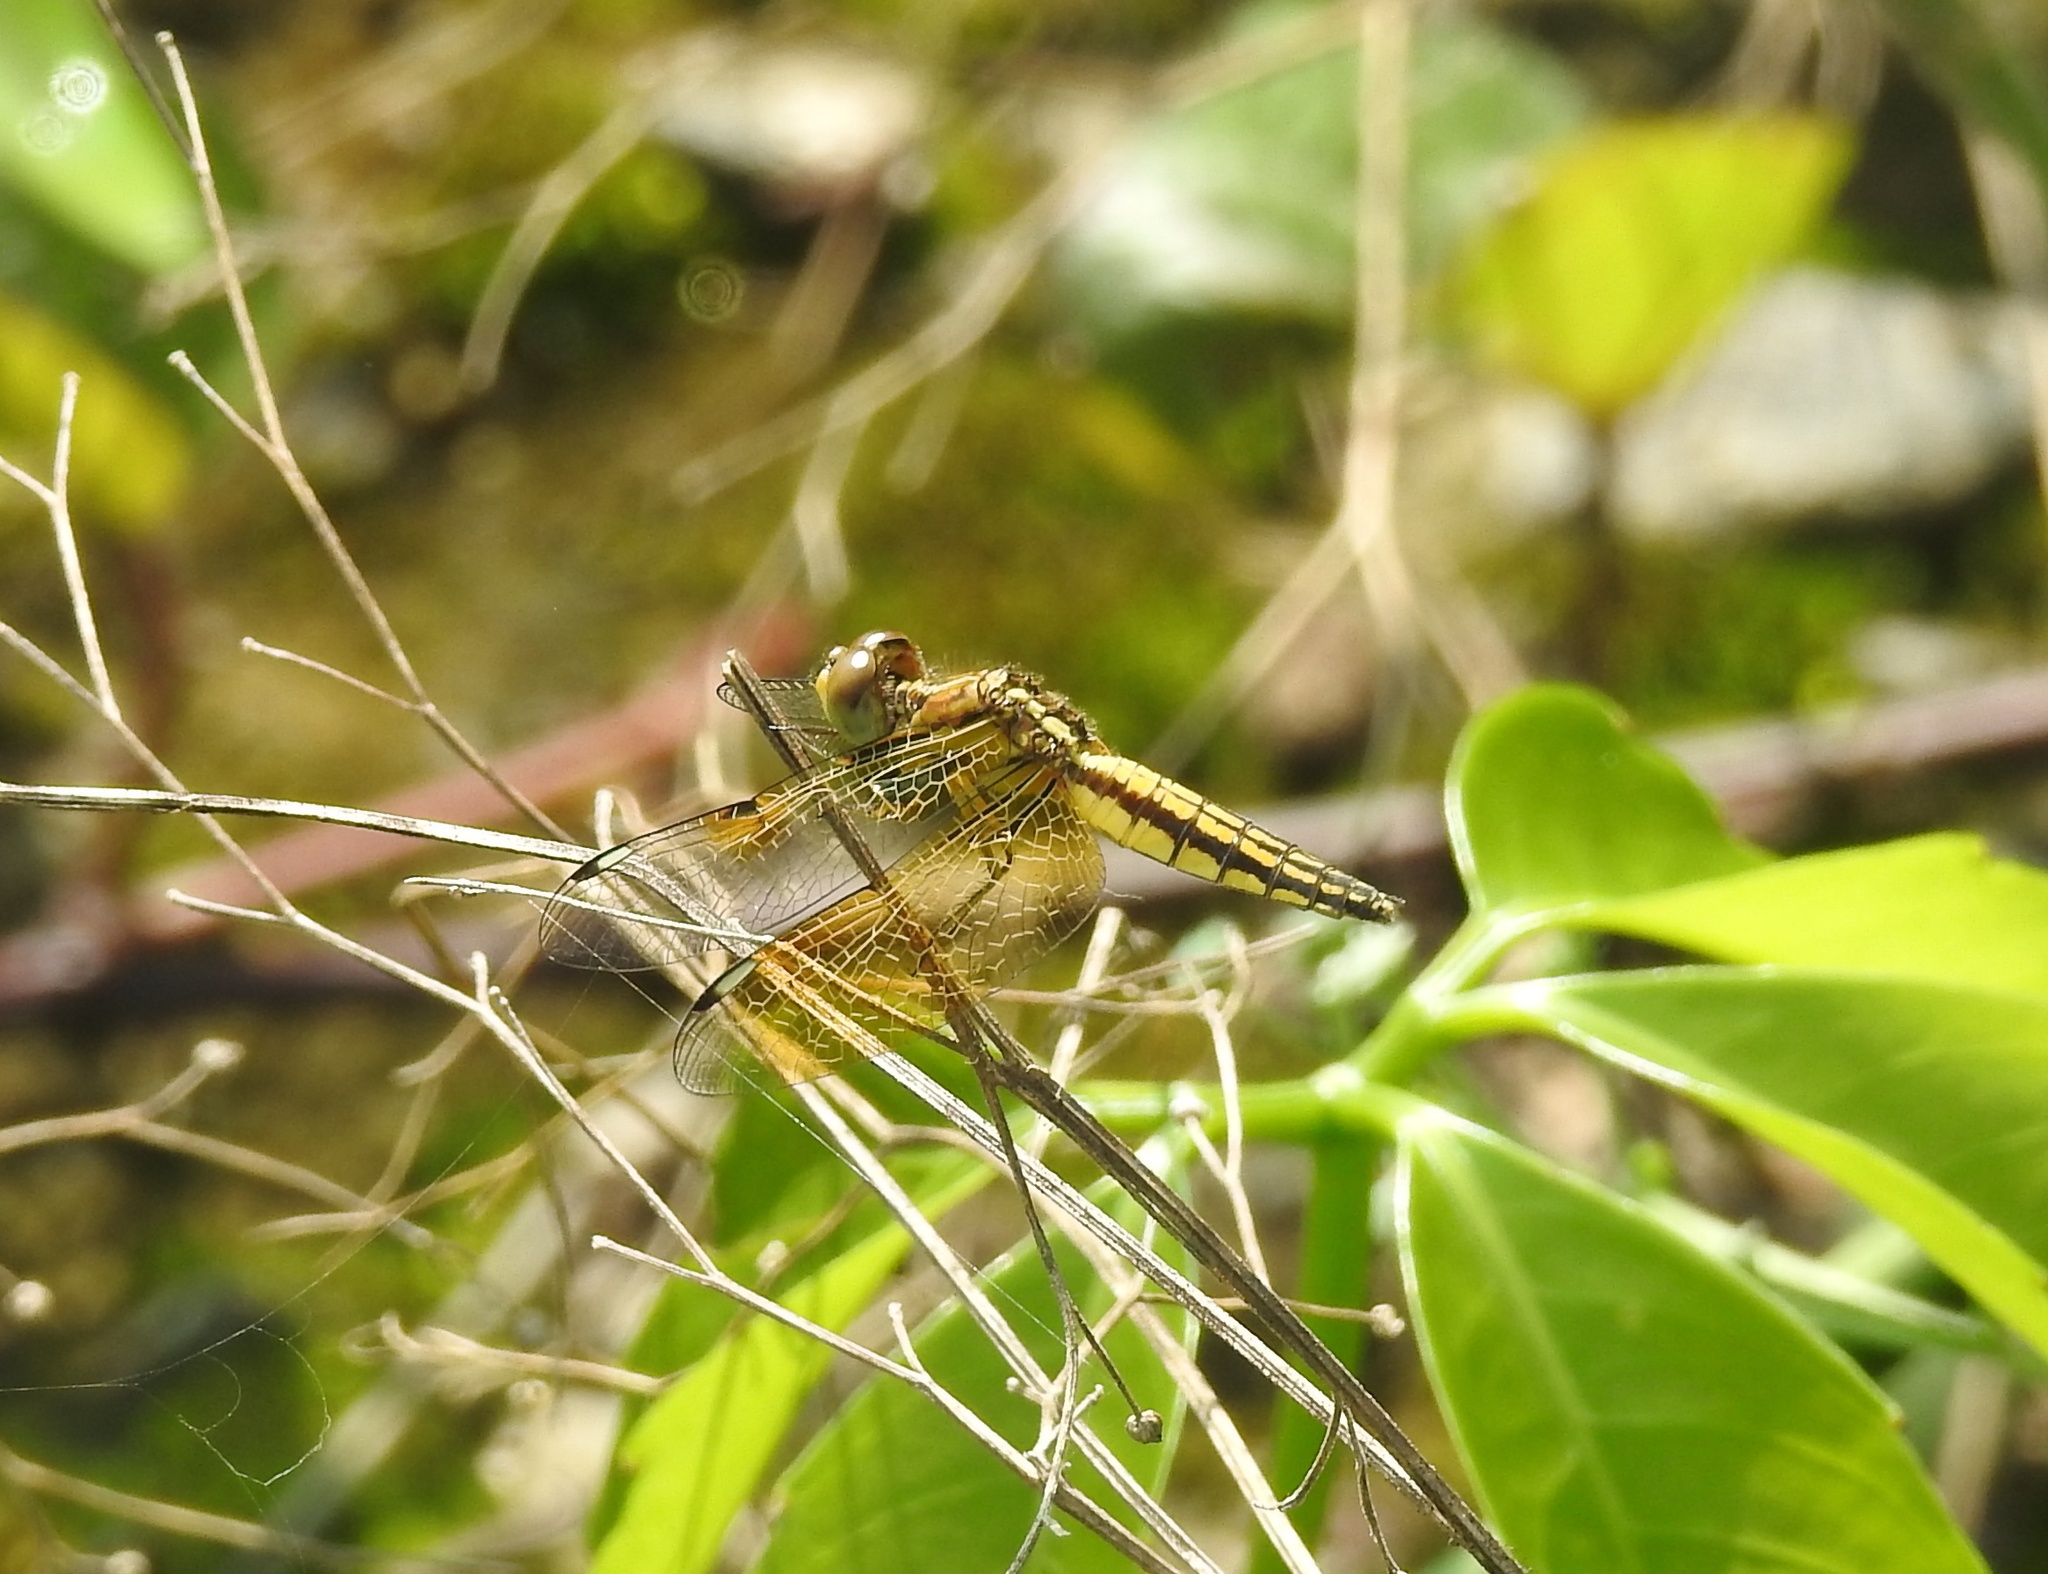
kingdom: Animalia
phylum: Arthropoda
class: Insecta
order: Odonata
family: Libellulidae
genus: Palpopleura
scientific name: Palpopleura sexmaculata
